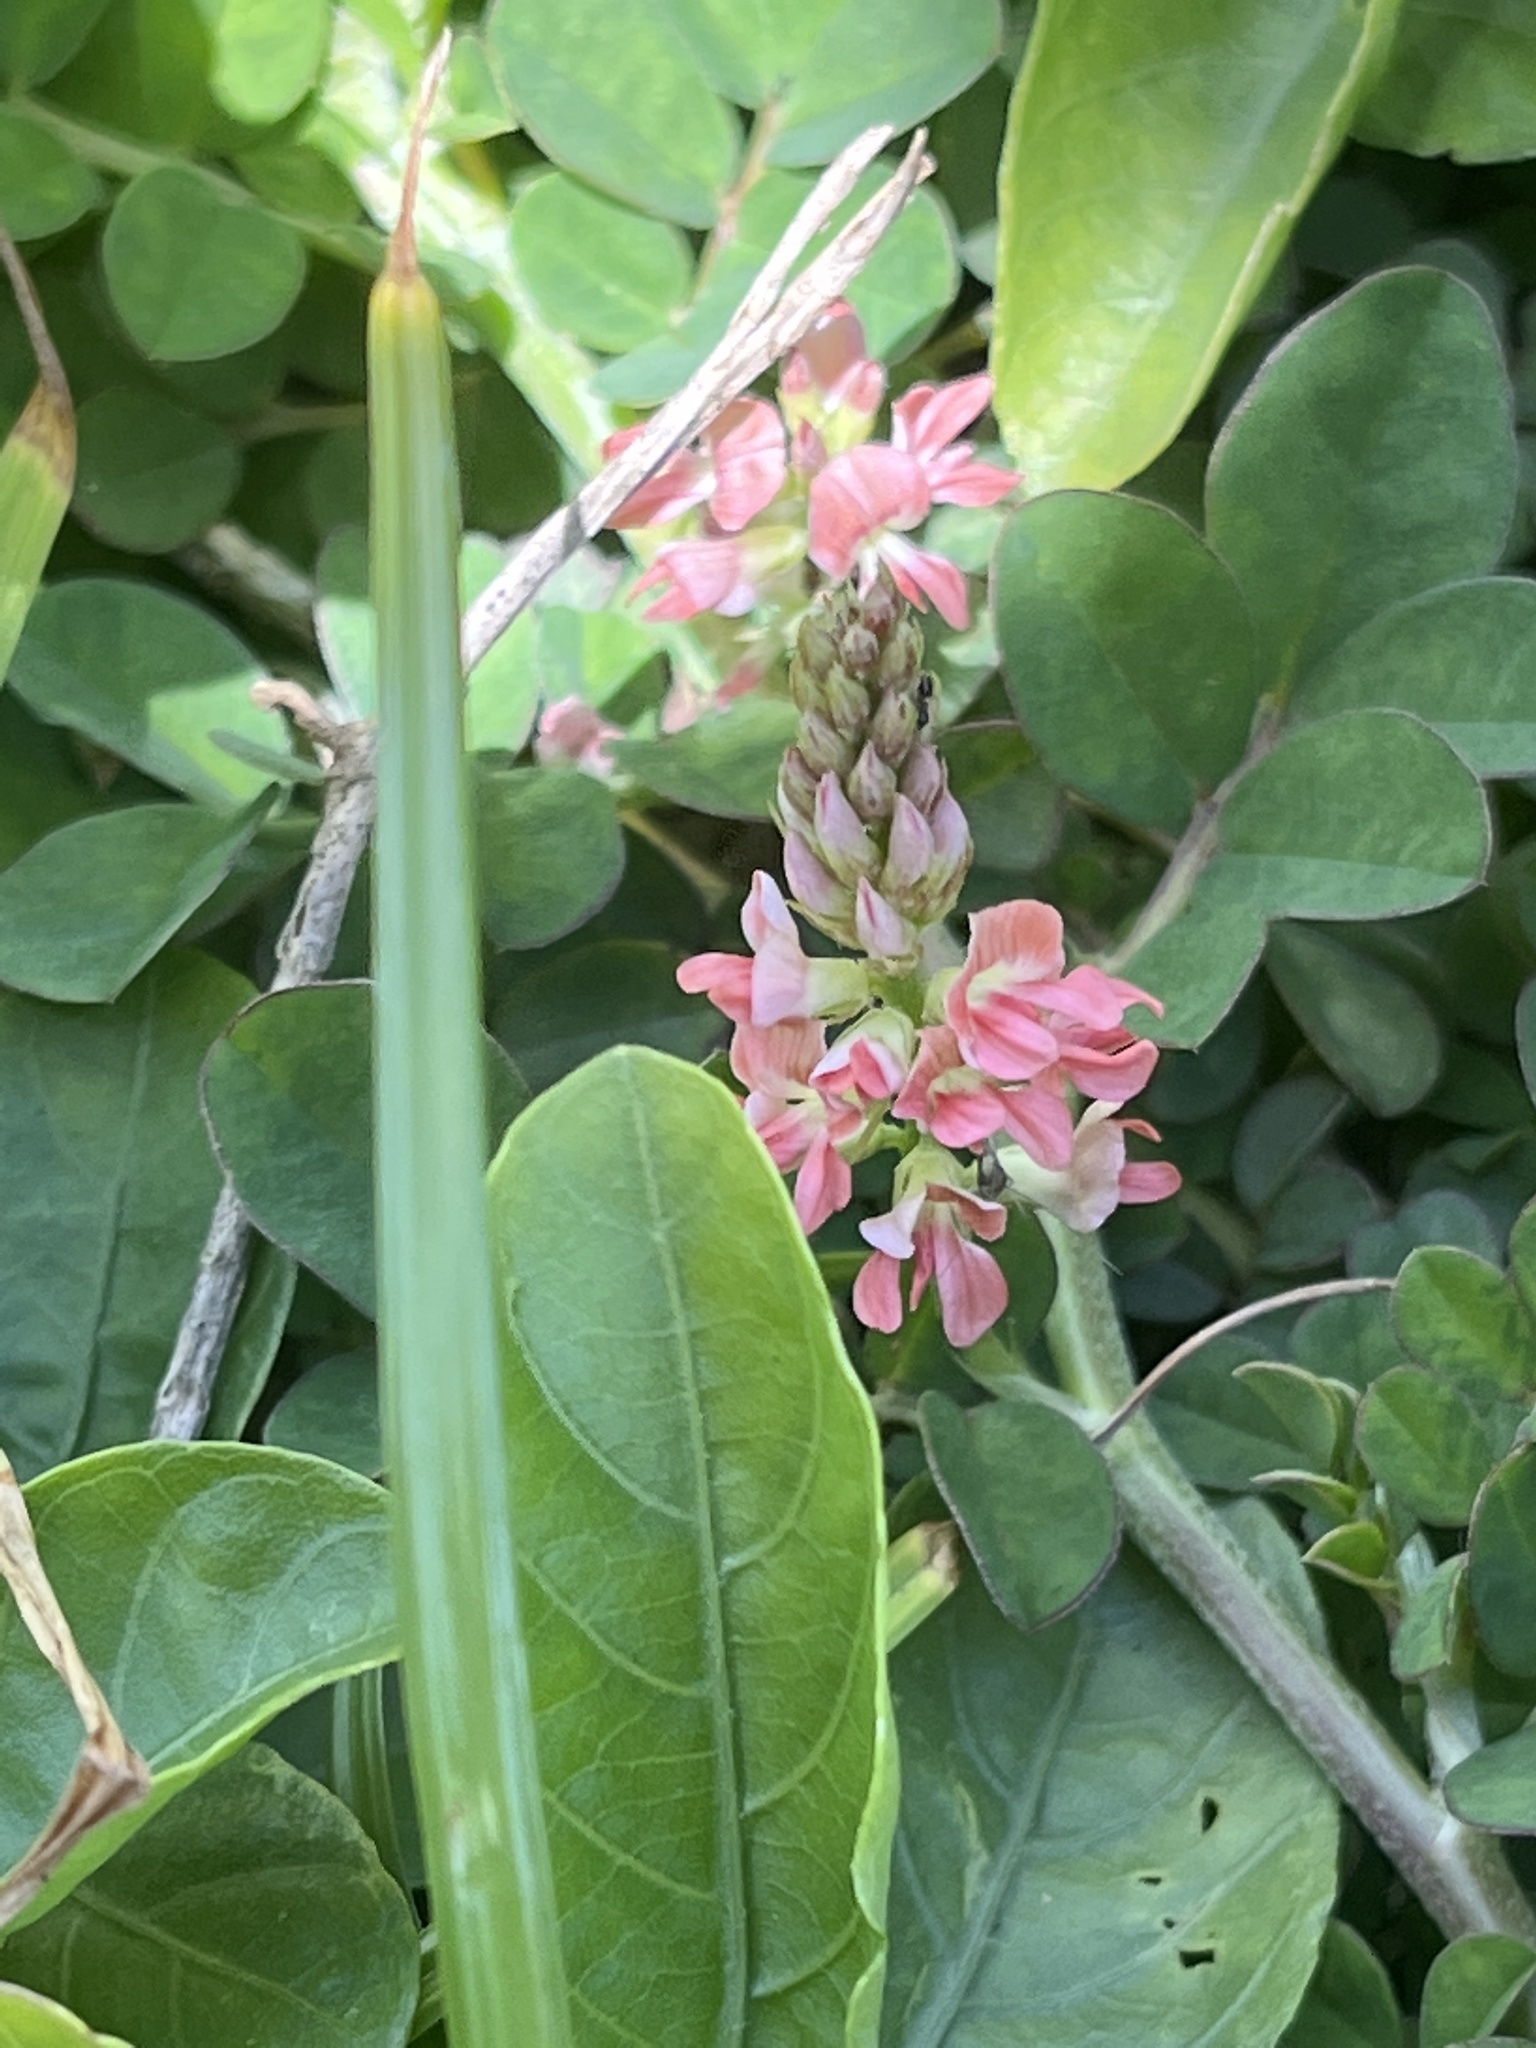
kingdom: Plantae
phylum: Tracheophyta
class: Magnoliopsida
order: Fabales
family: Fabaceae
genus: Indigofera
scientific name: Indigofera spicata
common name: Creeping indigo
